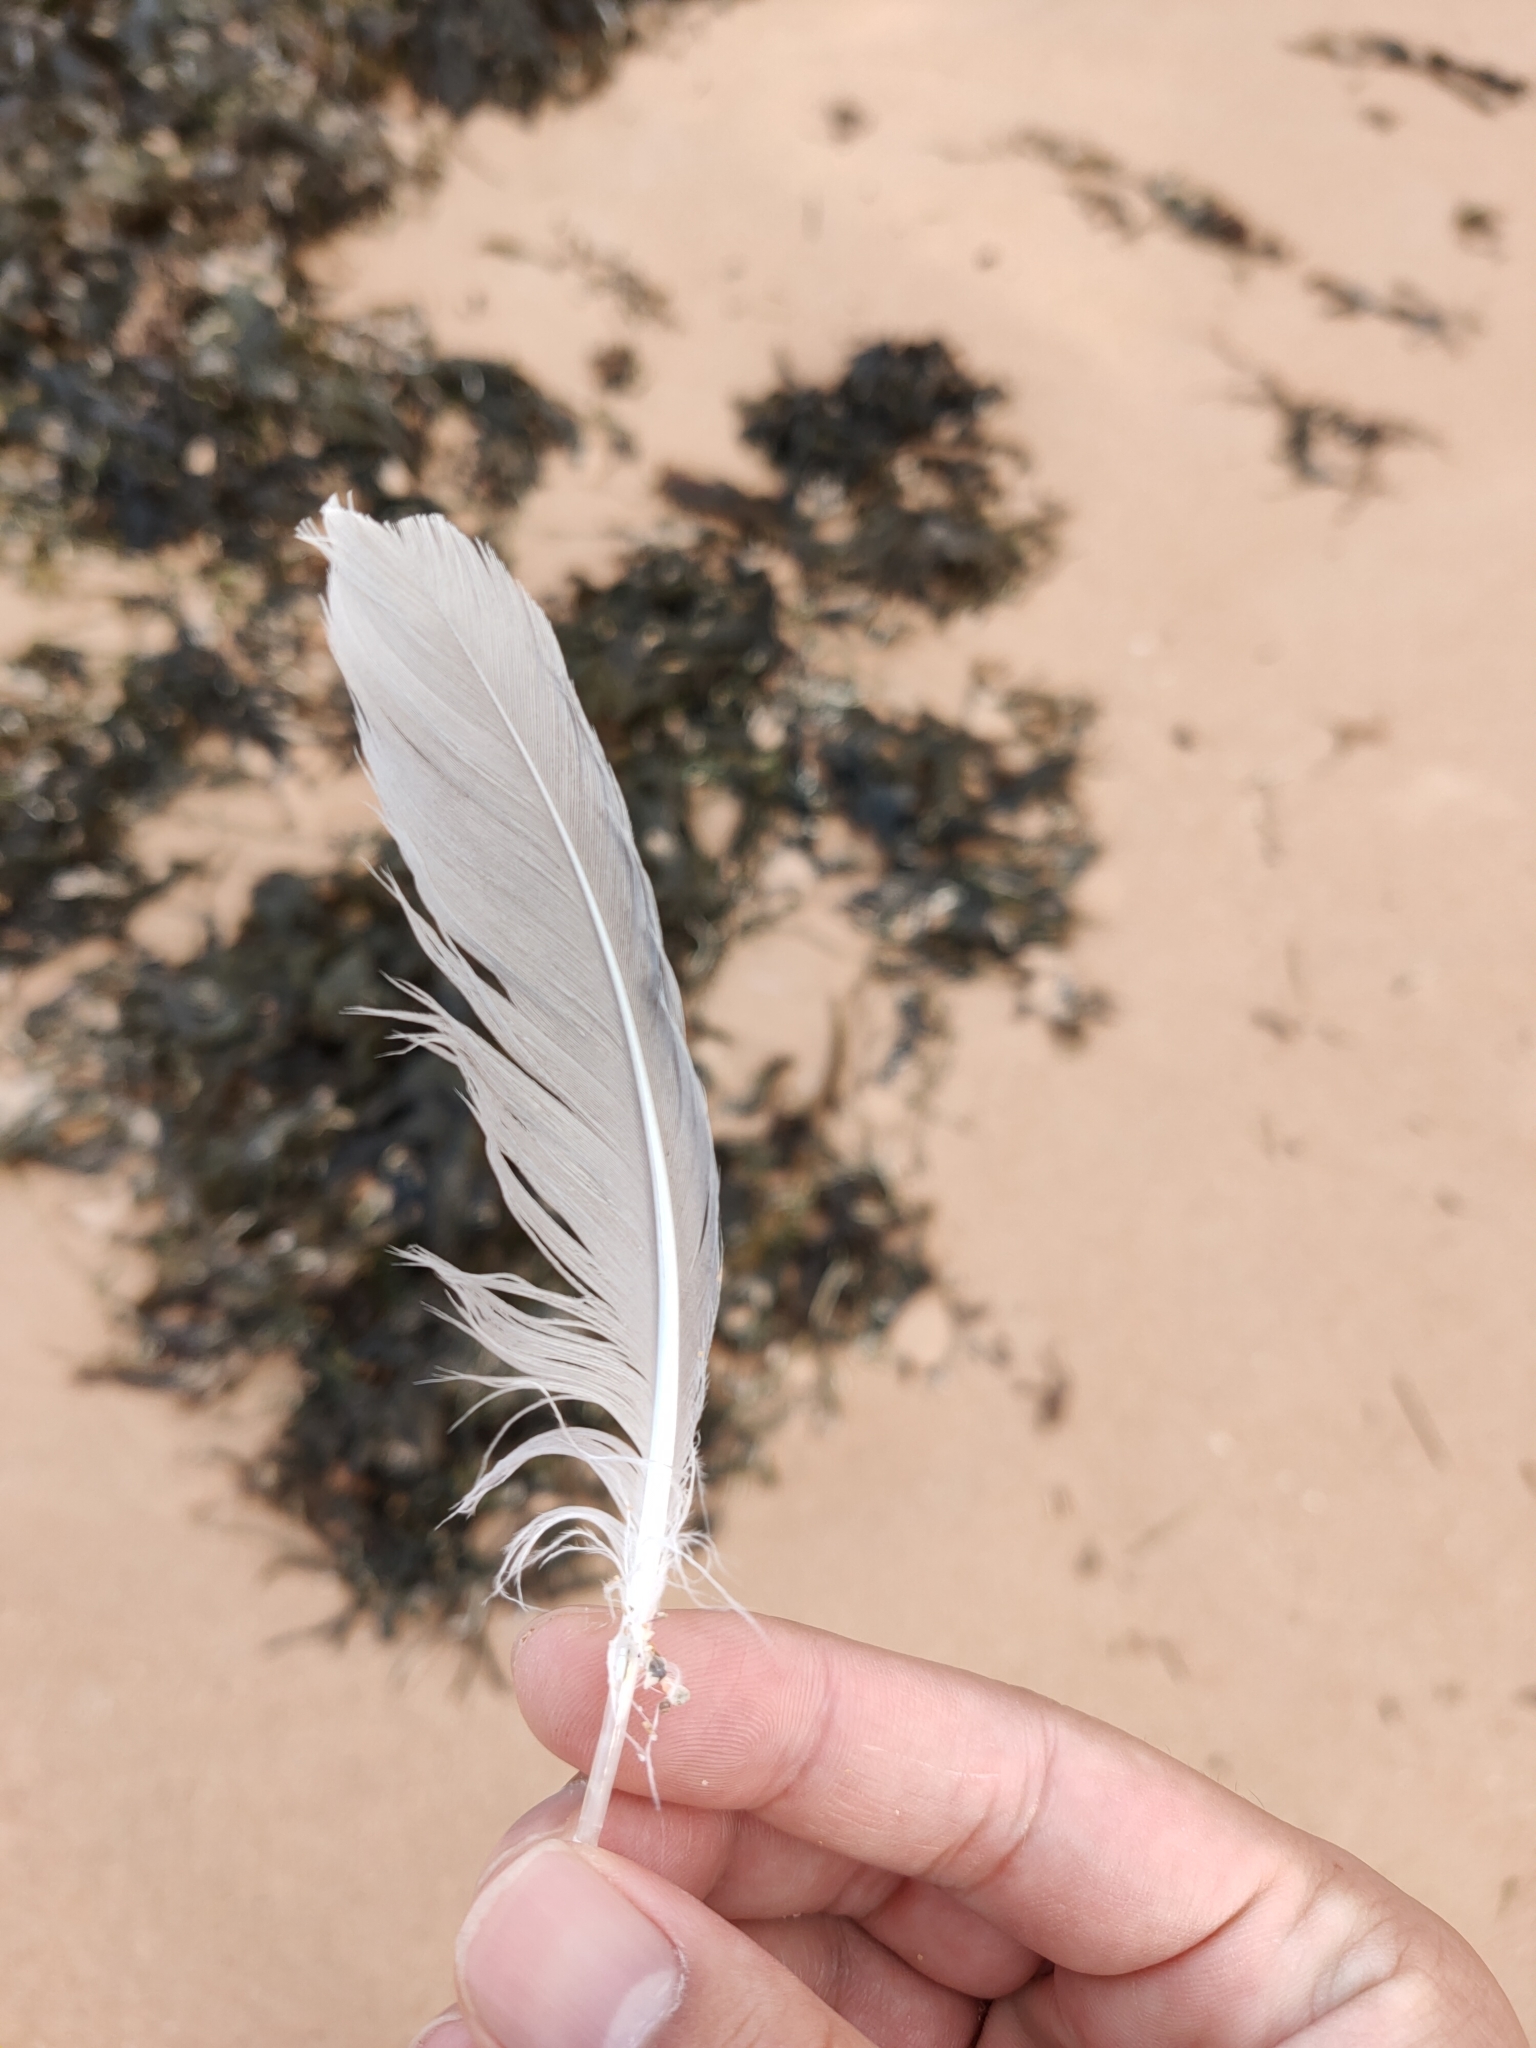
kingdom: Animalia
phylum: Chordata
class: Aves
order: Charadriiformes
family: Laridae
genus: Chroicocephalus
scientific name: Chroicocephalus novaehollandiae
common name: Silver gull
